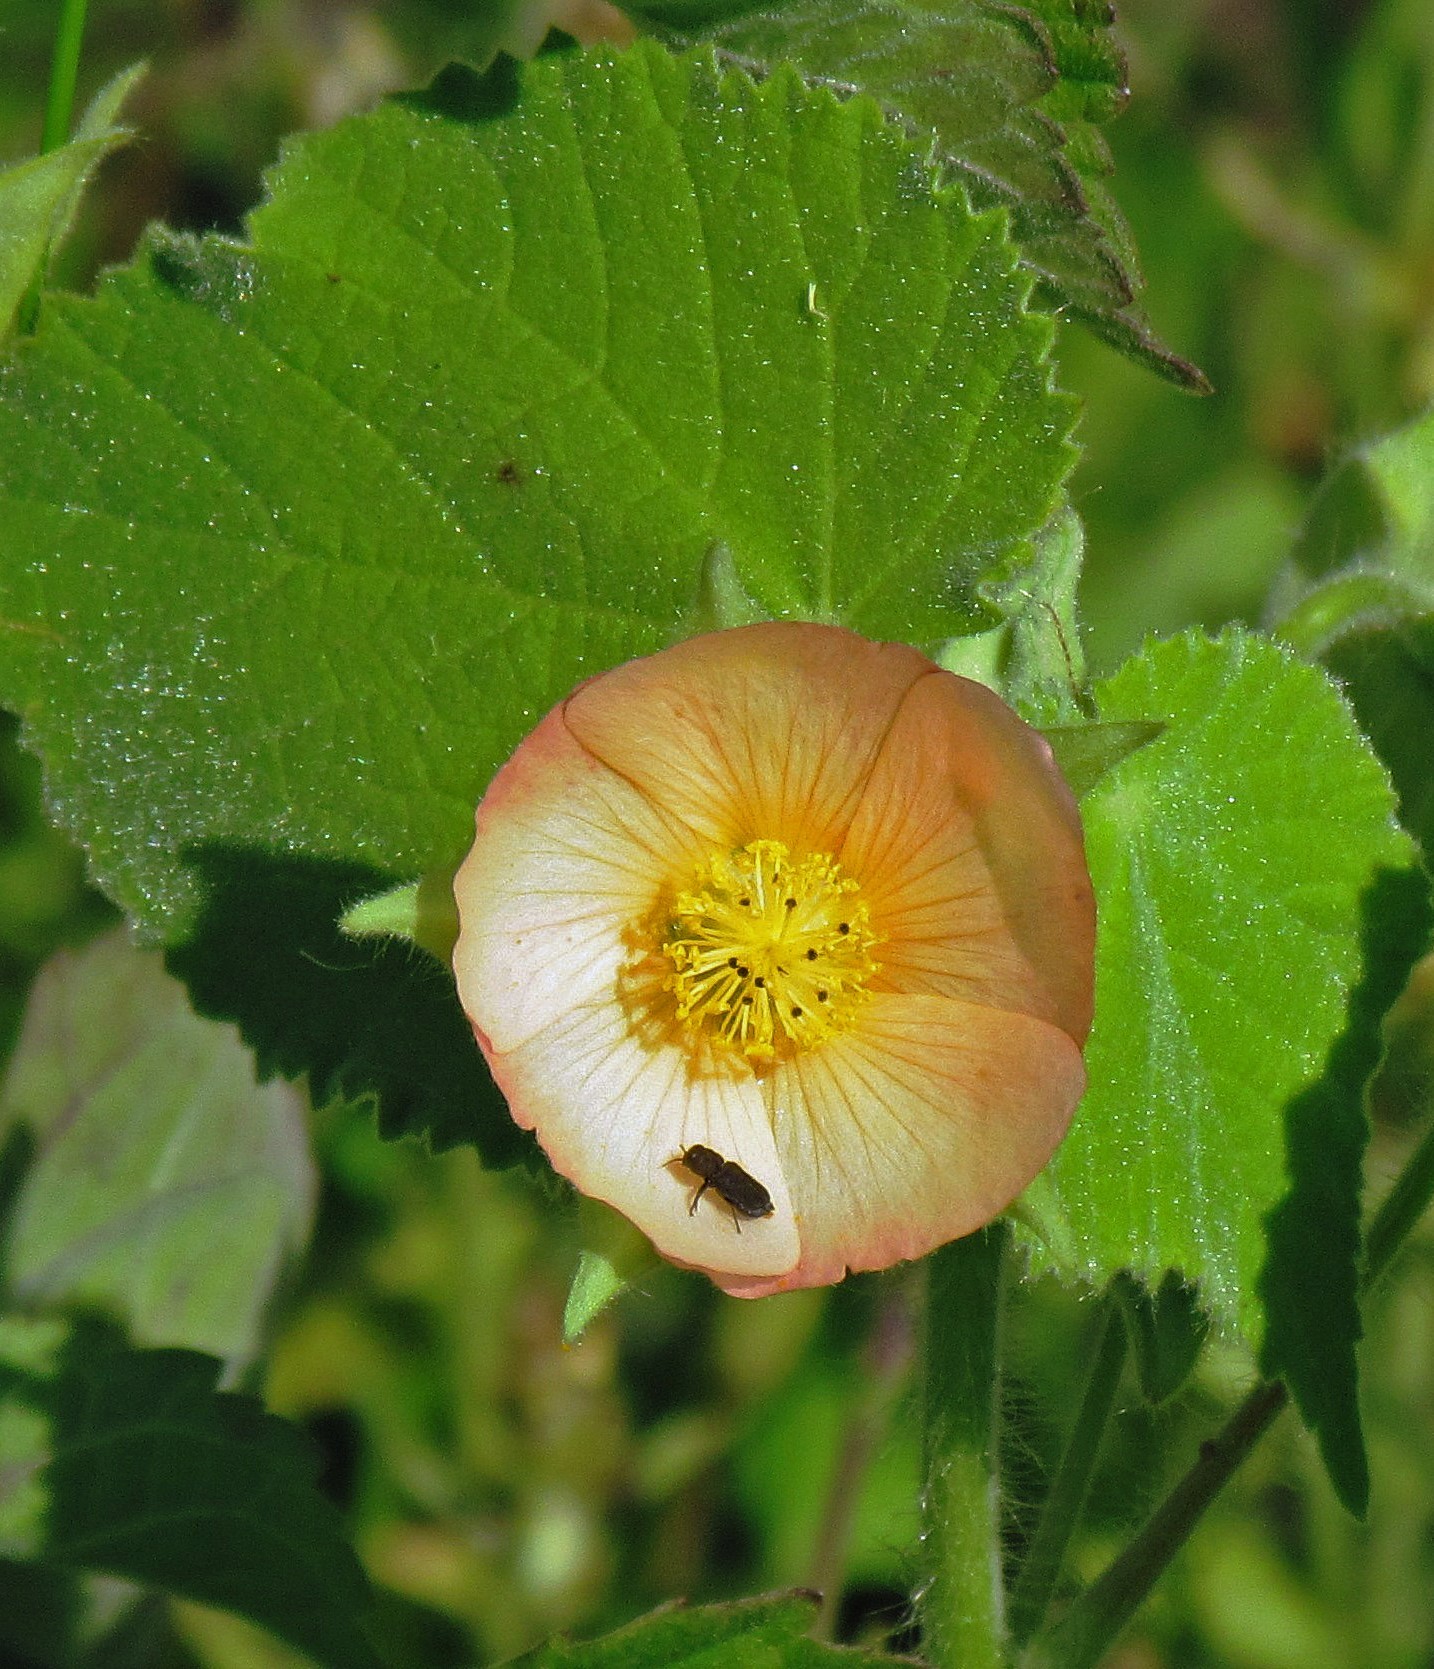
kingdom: Plantae
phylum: Tracheophyta
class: Magnoliopsida
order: Malvales
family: Malvaceae
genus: Callianthe
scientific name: Callianthe pauciflora
